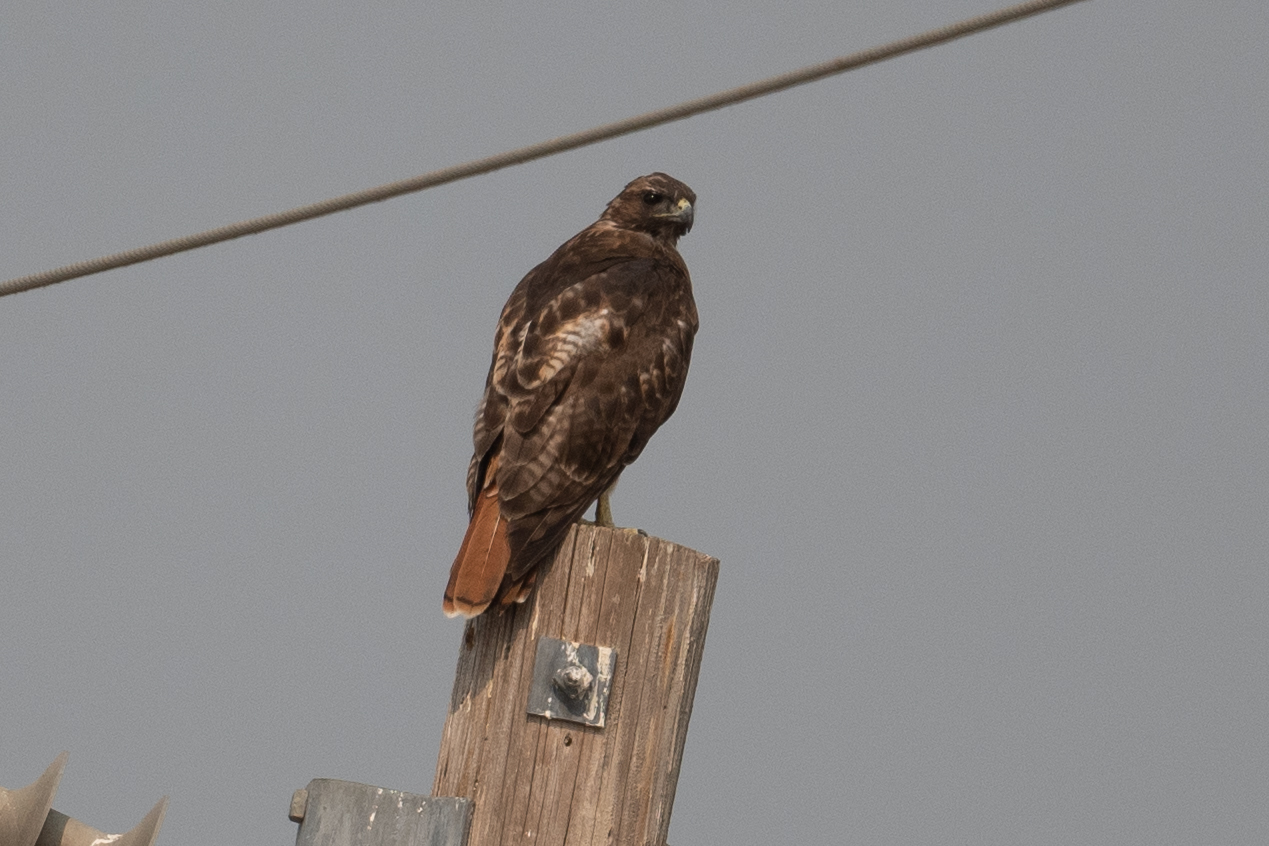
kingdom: Animalia
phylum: Chordata
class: Aves
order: Accipitriformes
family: Accipitridae
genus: Buteo
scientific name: Buteo jamaicensis
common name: Red-tailed hawk
